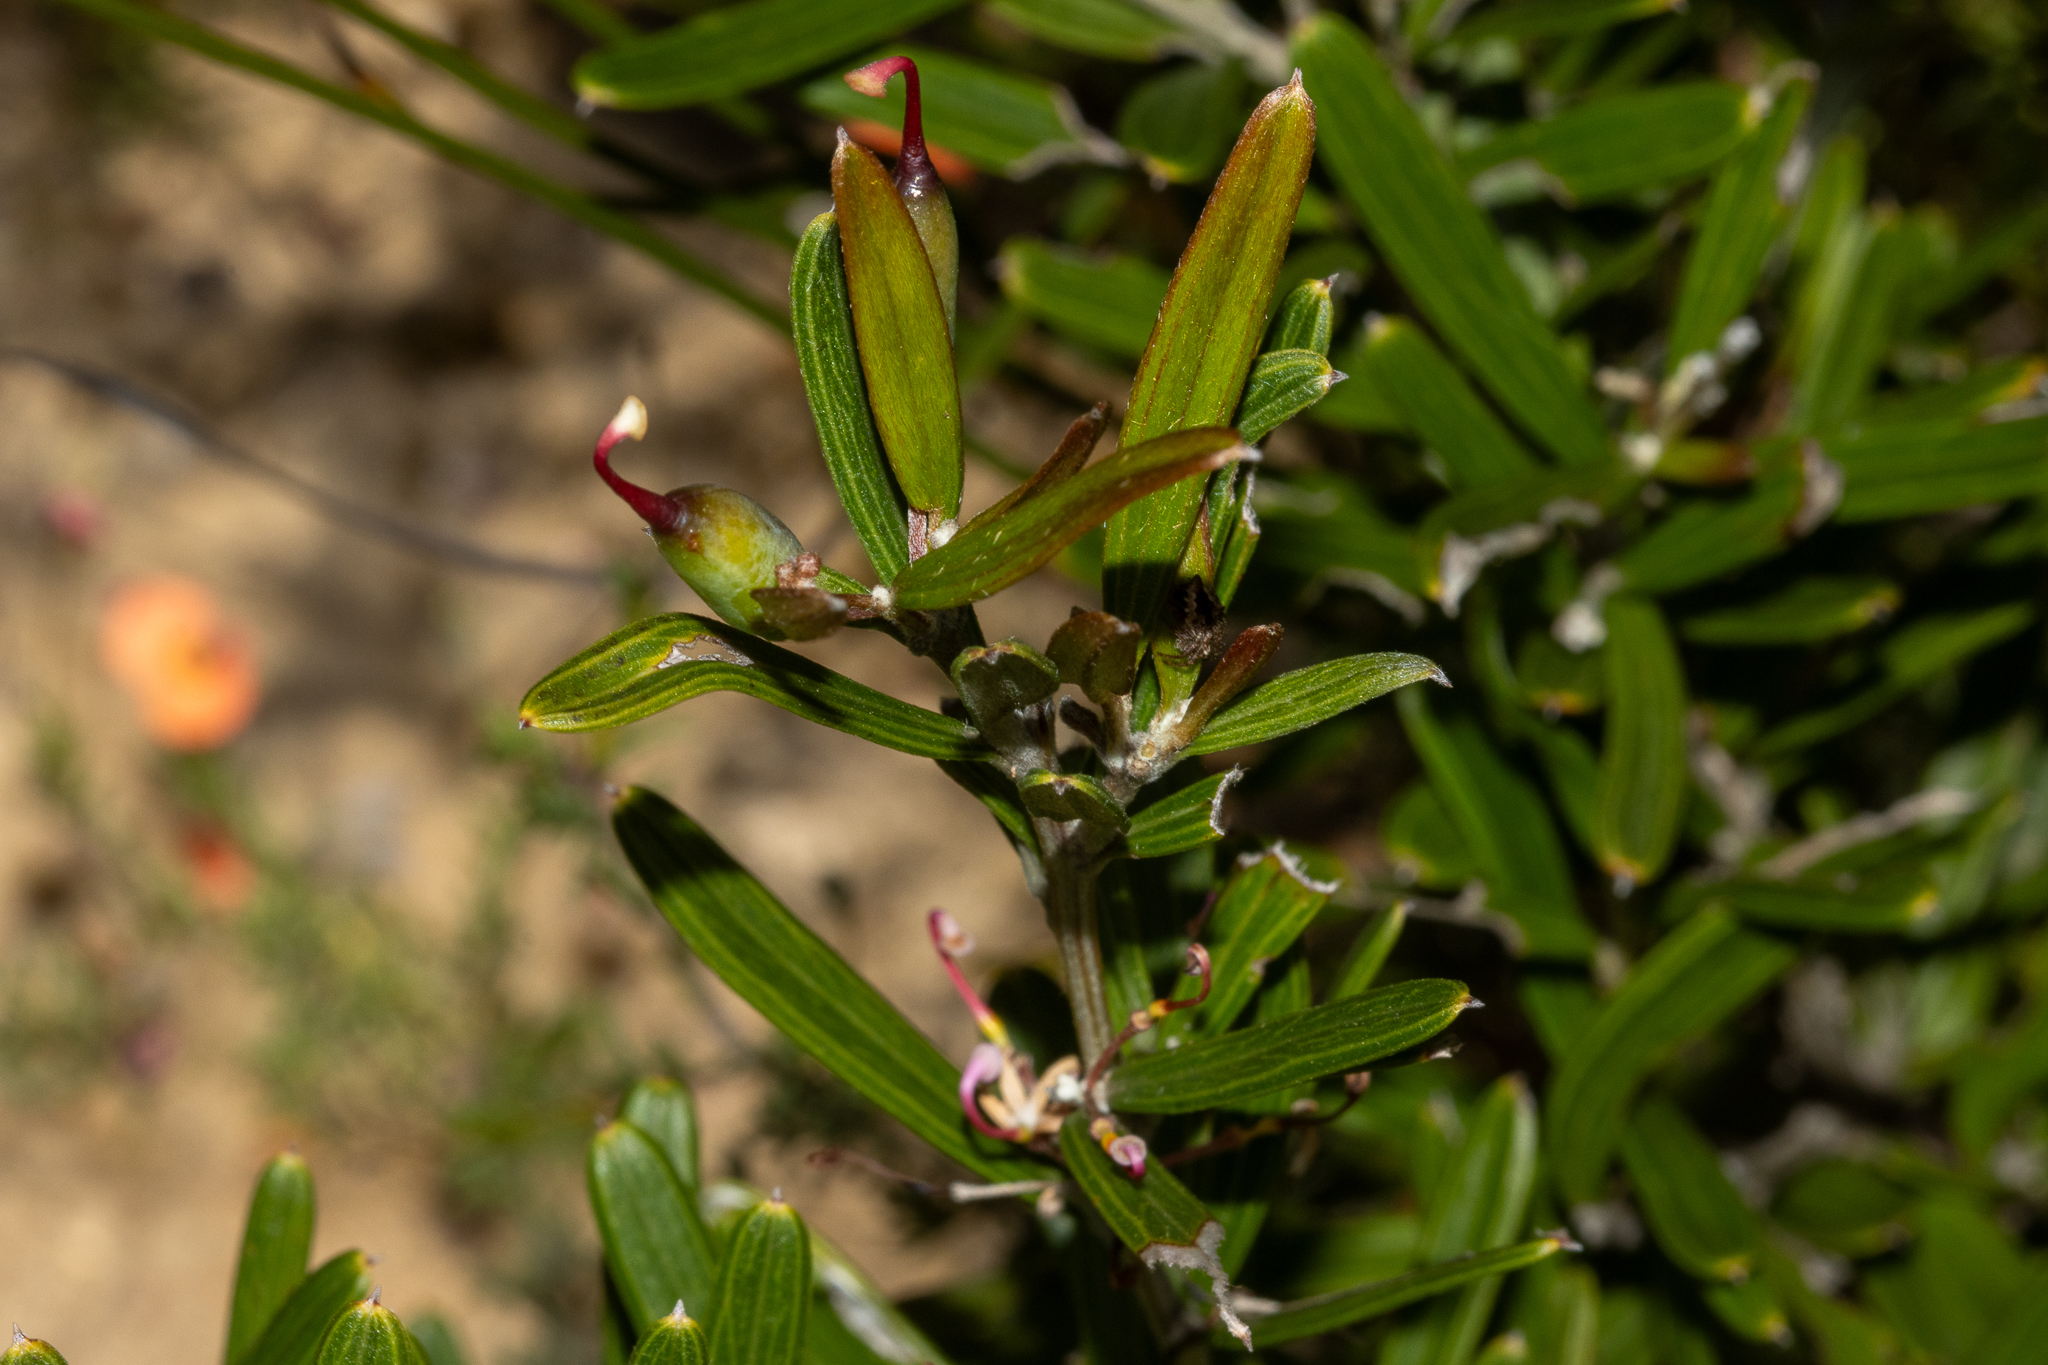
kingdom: Plantae
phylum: Tracheophyta
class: Magnoliopsida
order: Proteales
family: Proteaceae
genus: Grevillea
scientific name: Grevillea quinquenervis
